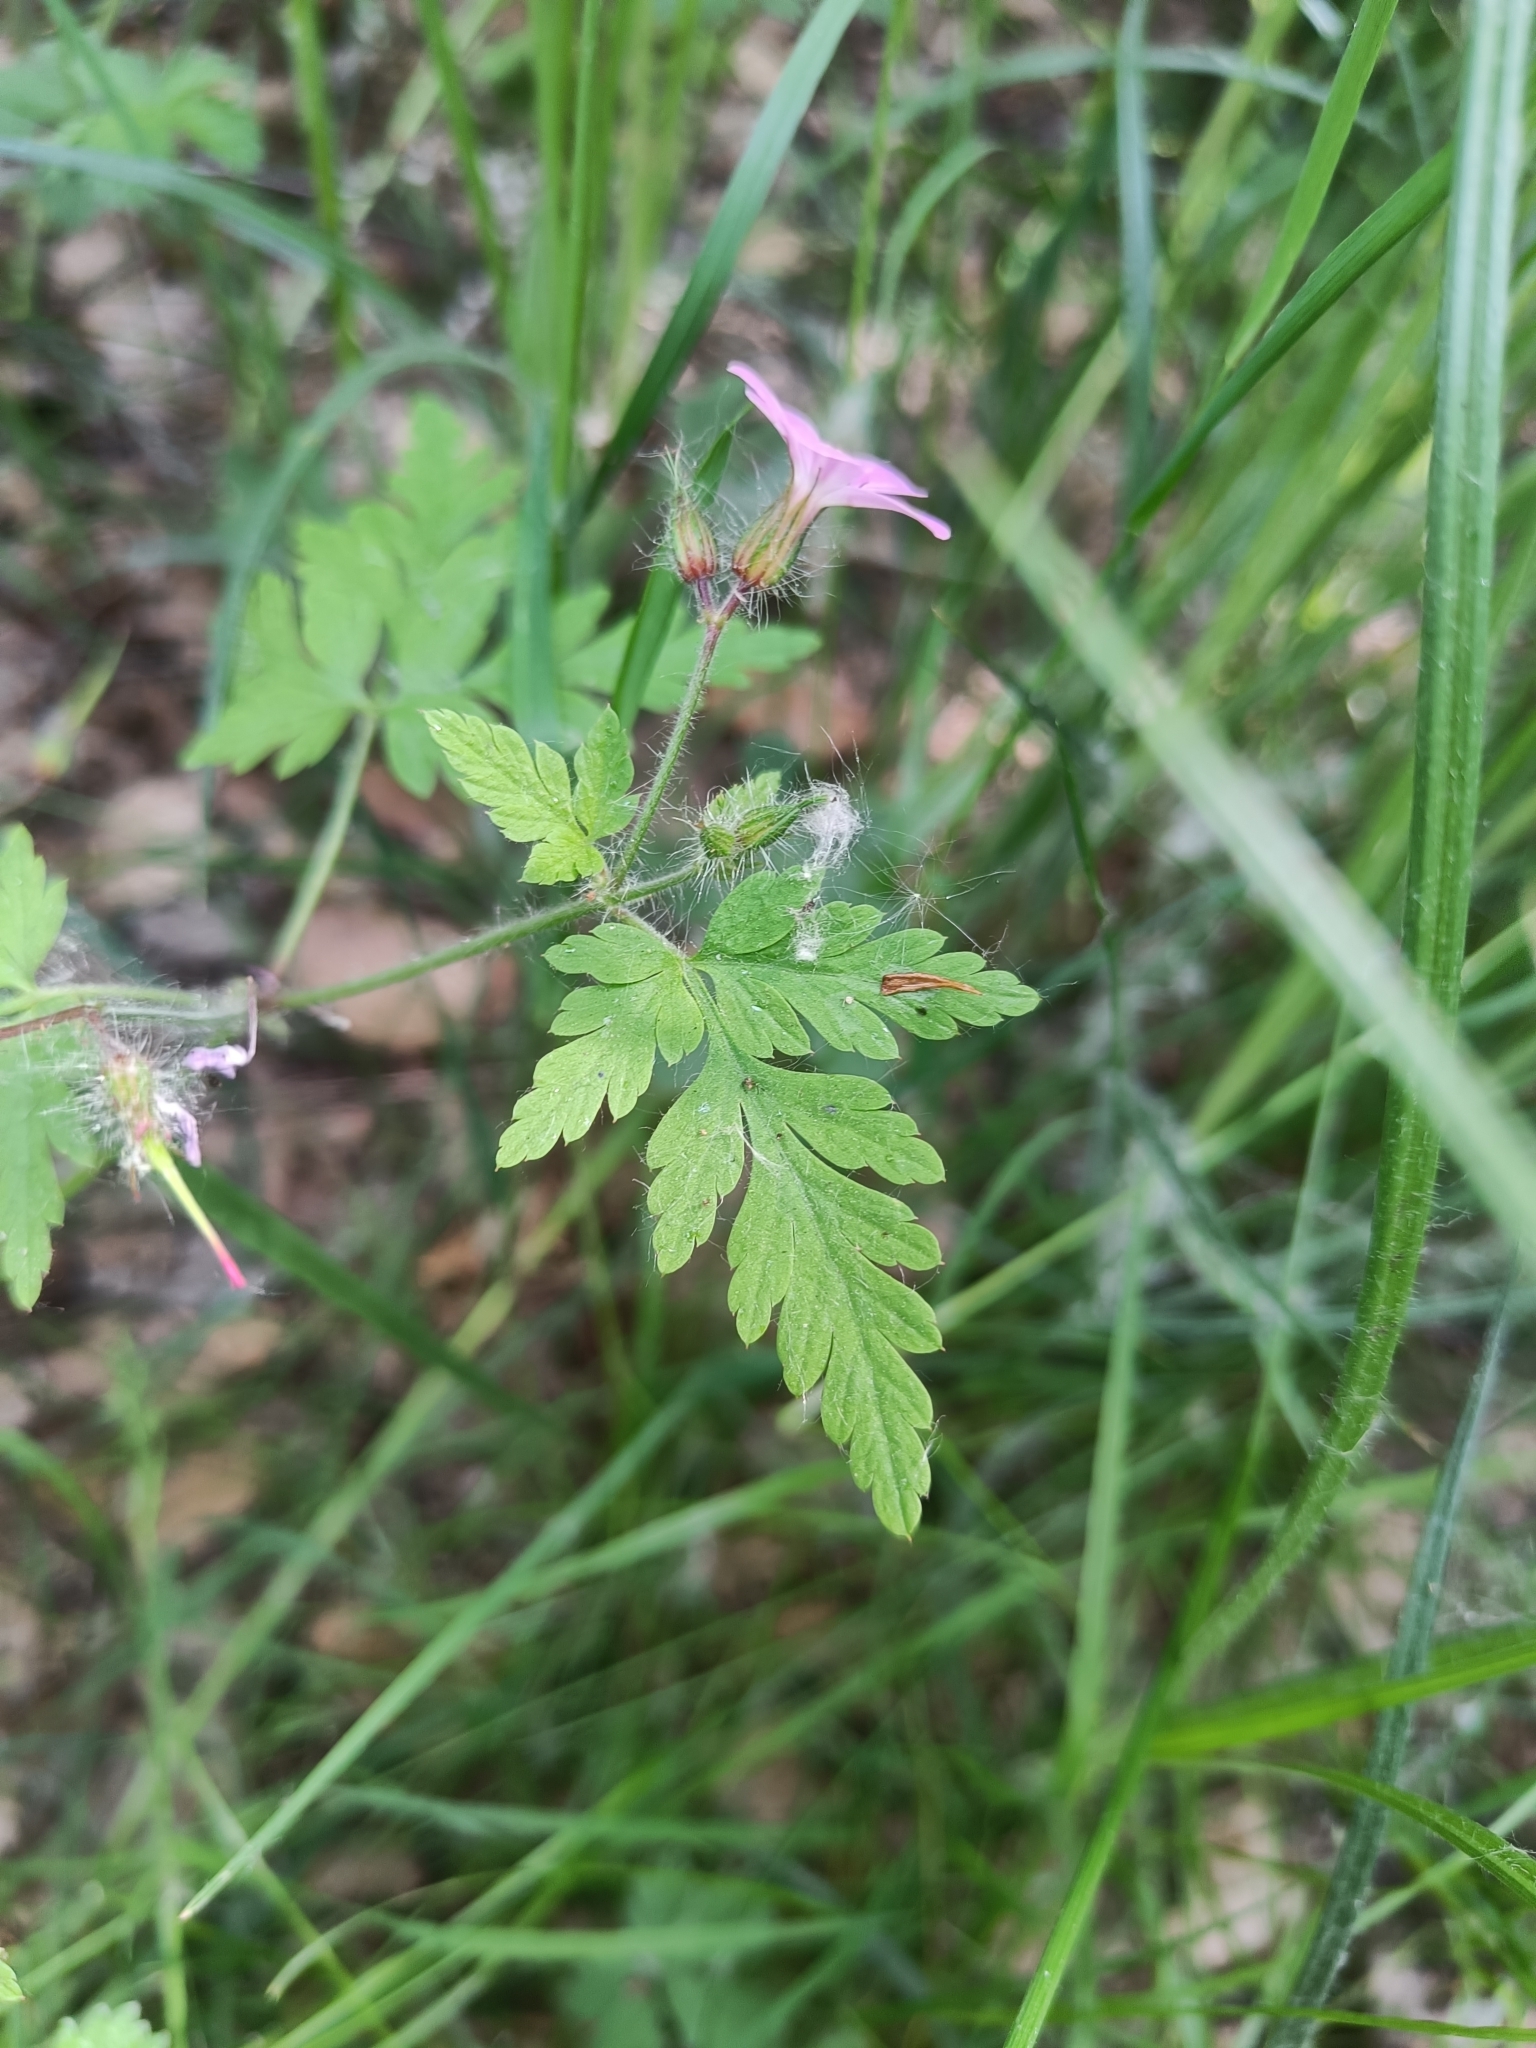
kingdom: Plantae
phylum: Tracheophyta
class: Magnoliopsida
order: Geraniales
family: Geraniaceae
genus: Geranium
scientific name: Geranium robertianum
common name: Herb-robert
